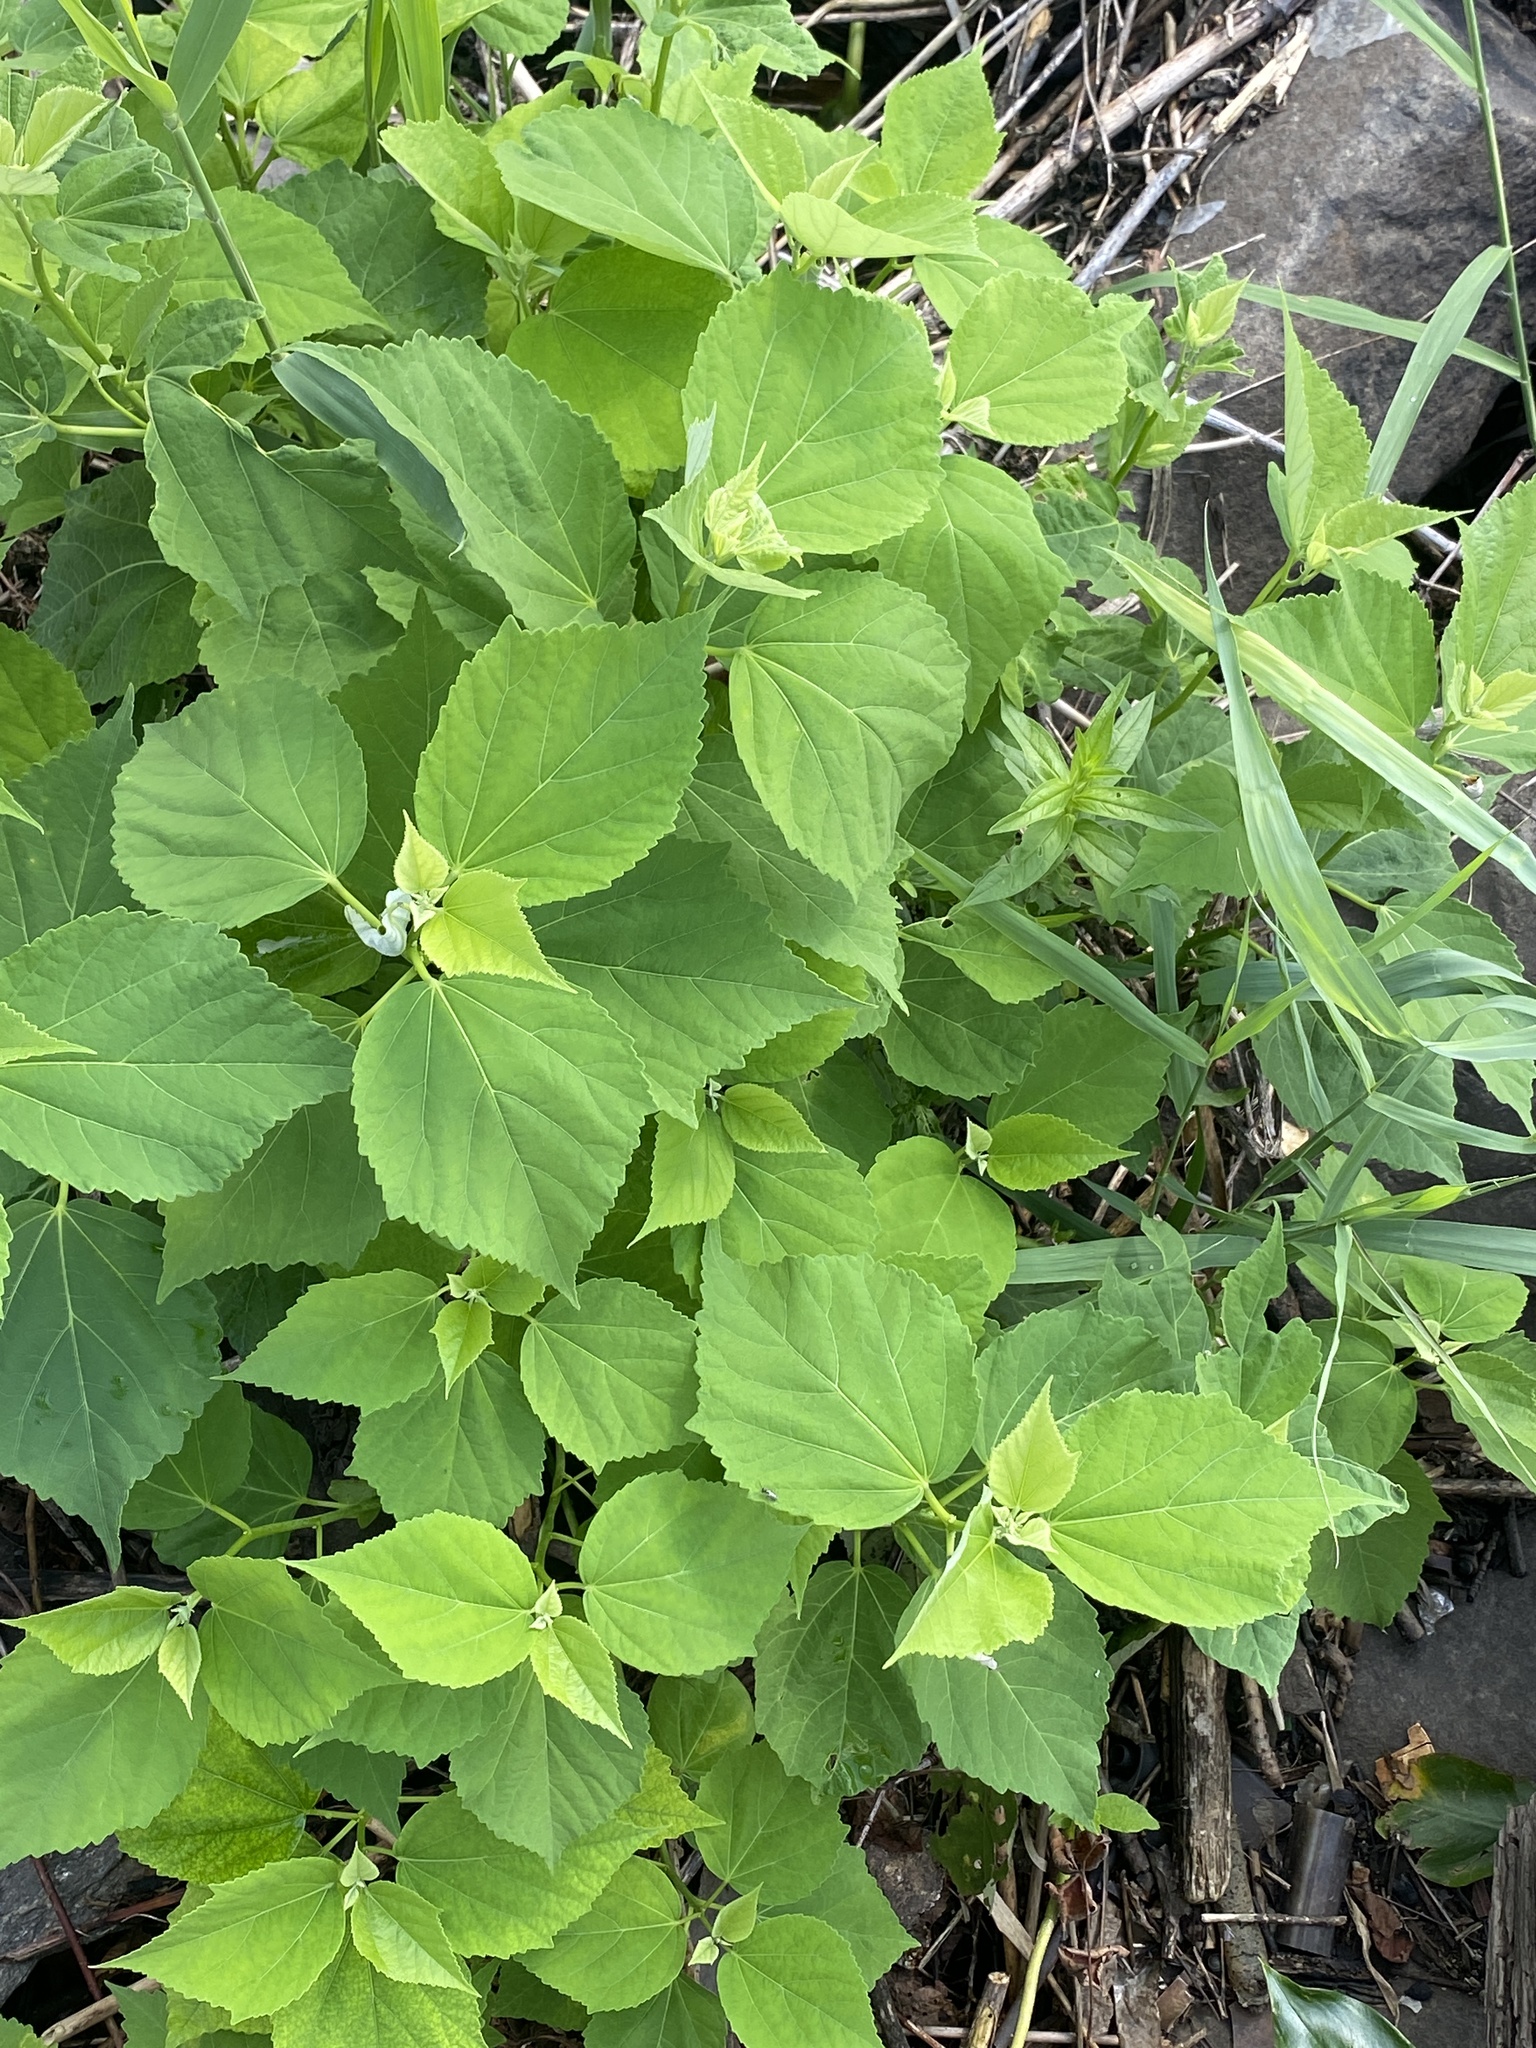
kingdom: Plantae
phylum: Tracheophyta
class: Magnoliopsida
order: Malvales
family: Malvaceae
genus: Hibiscus
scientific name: Hibiscus moscheutos
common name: Common rose-mallow
